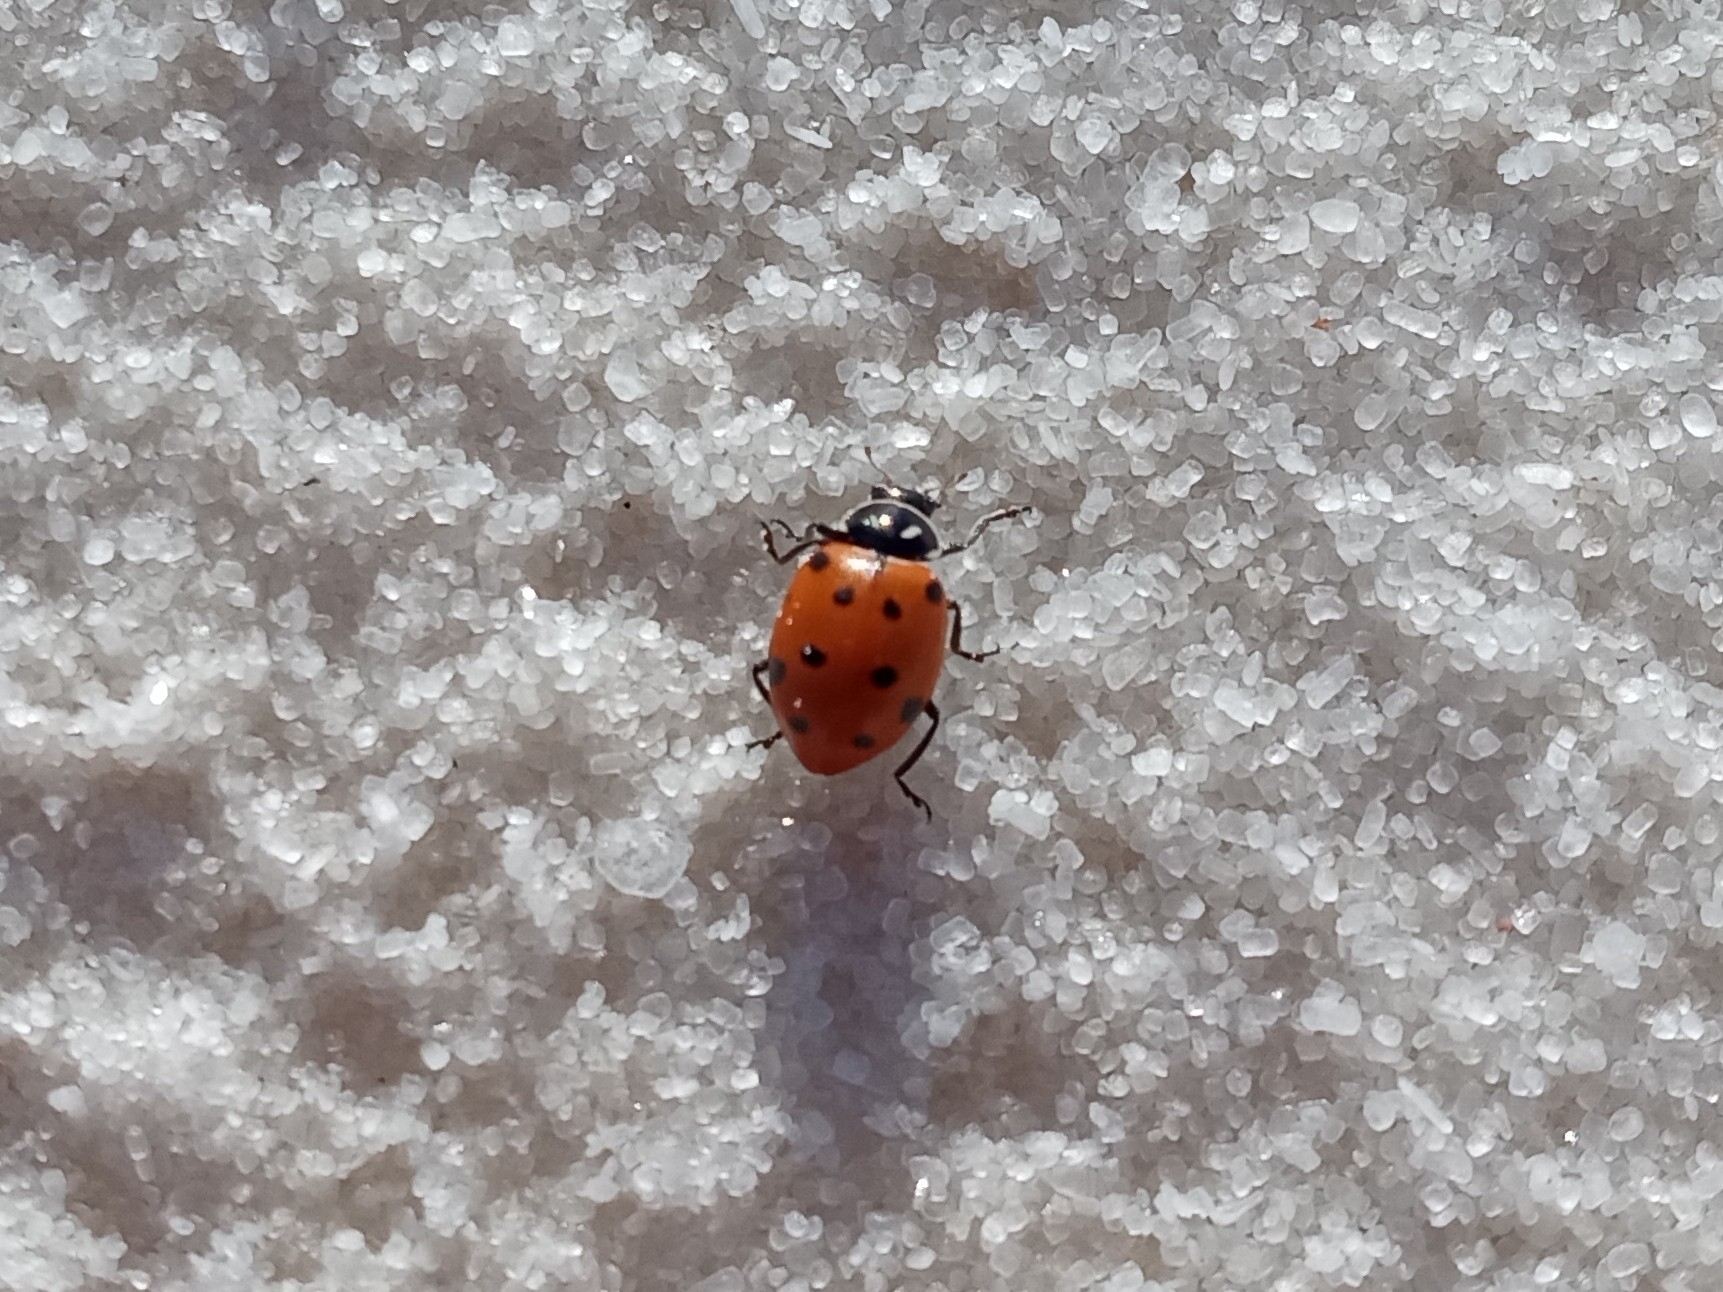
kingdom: Animalia
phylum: Arthropoda
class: Insecta
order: Coleoptera
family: Coccinellidae
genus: Hippodamia
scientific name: Hippodamia convergens
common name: Convergent lady beetle
